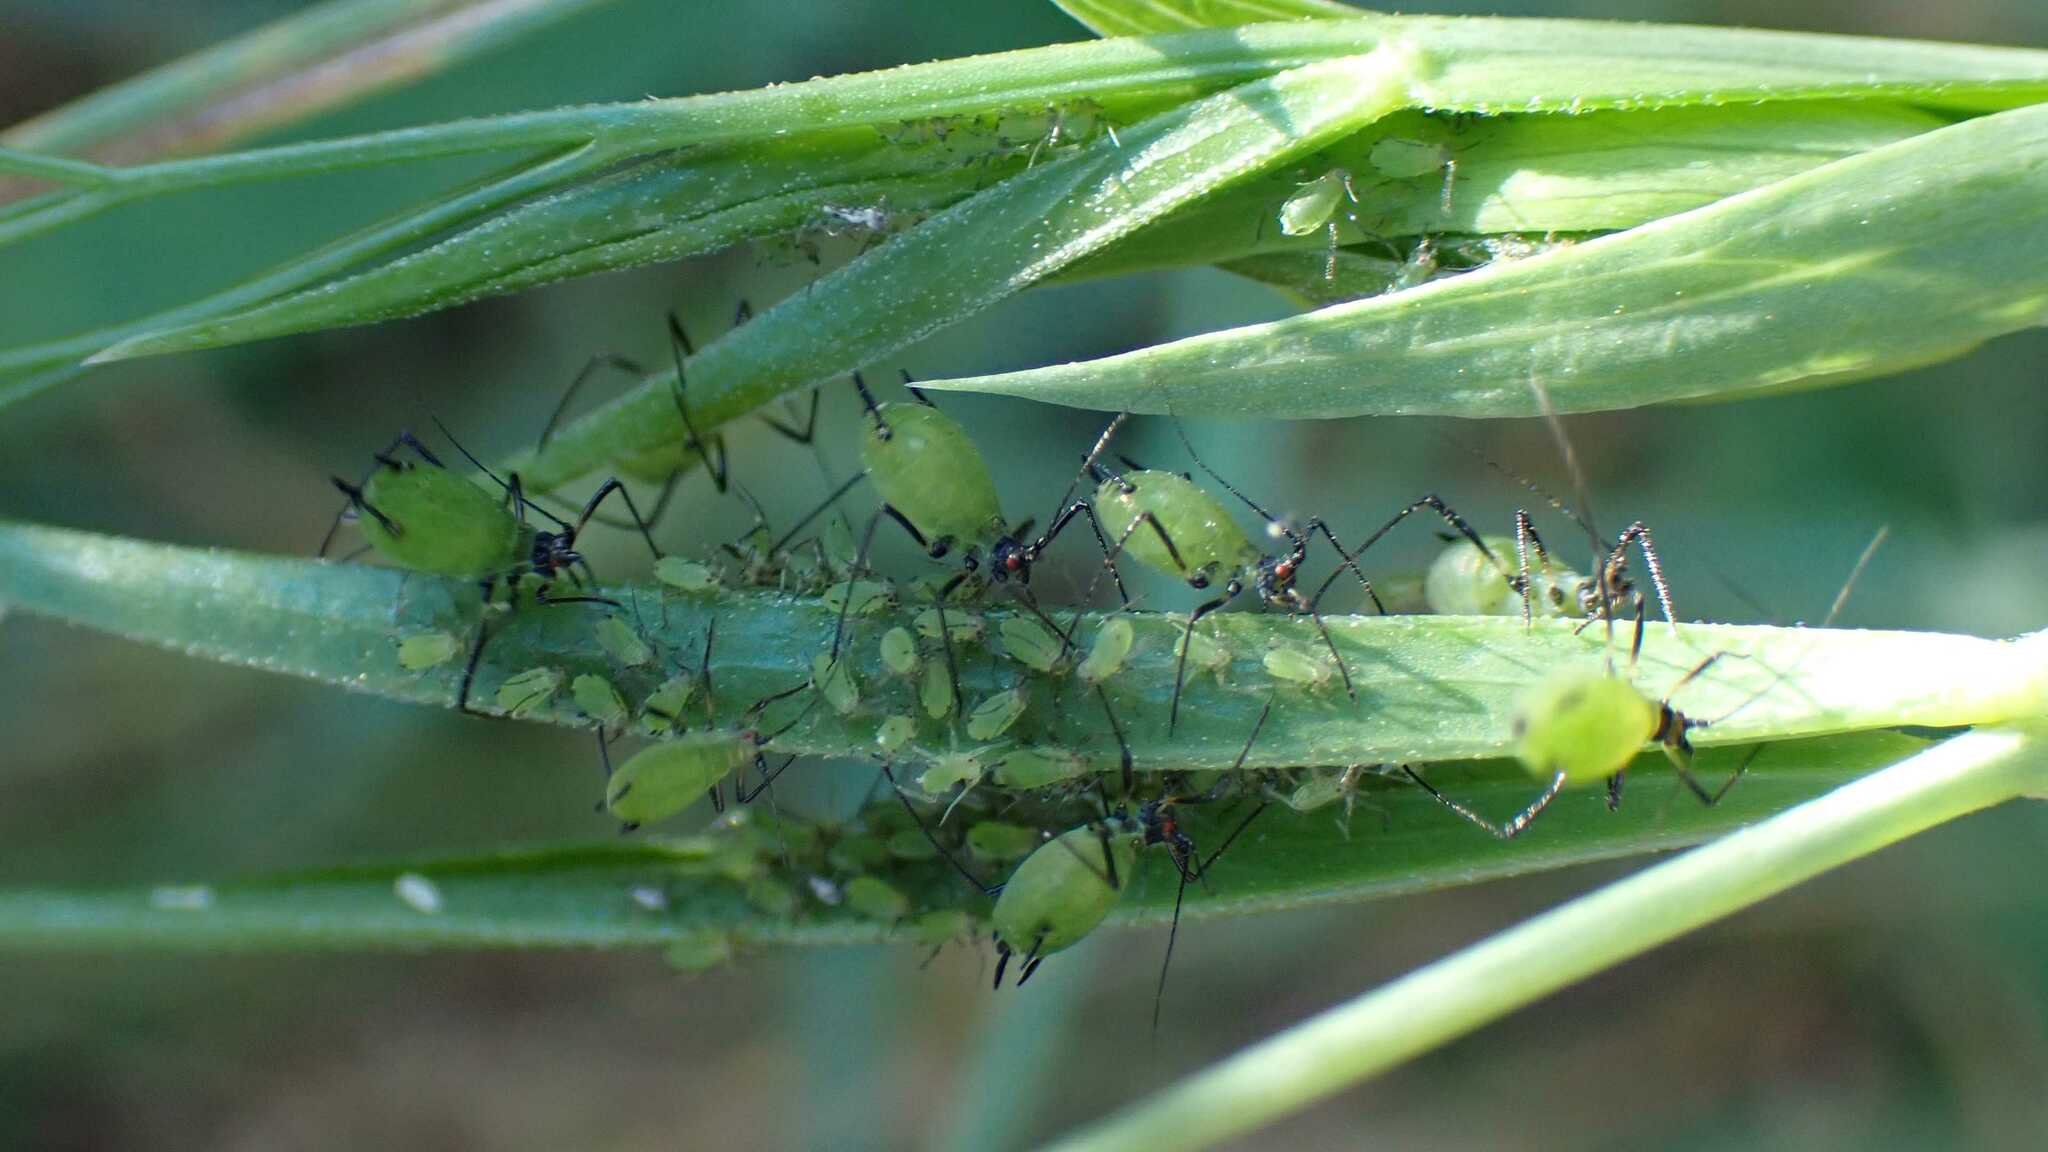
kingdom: Animalia
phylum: Arthropoda
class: Insecta
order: Hemiptera
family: Aphididae
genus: Megoura
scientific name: Megoura viciae
